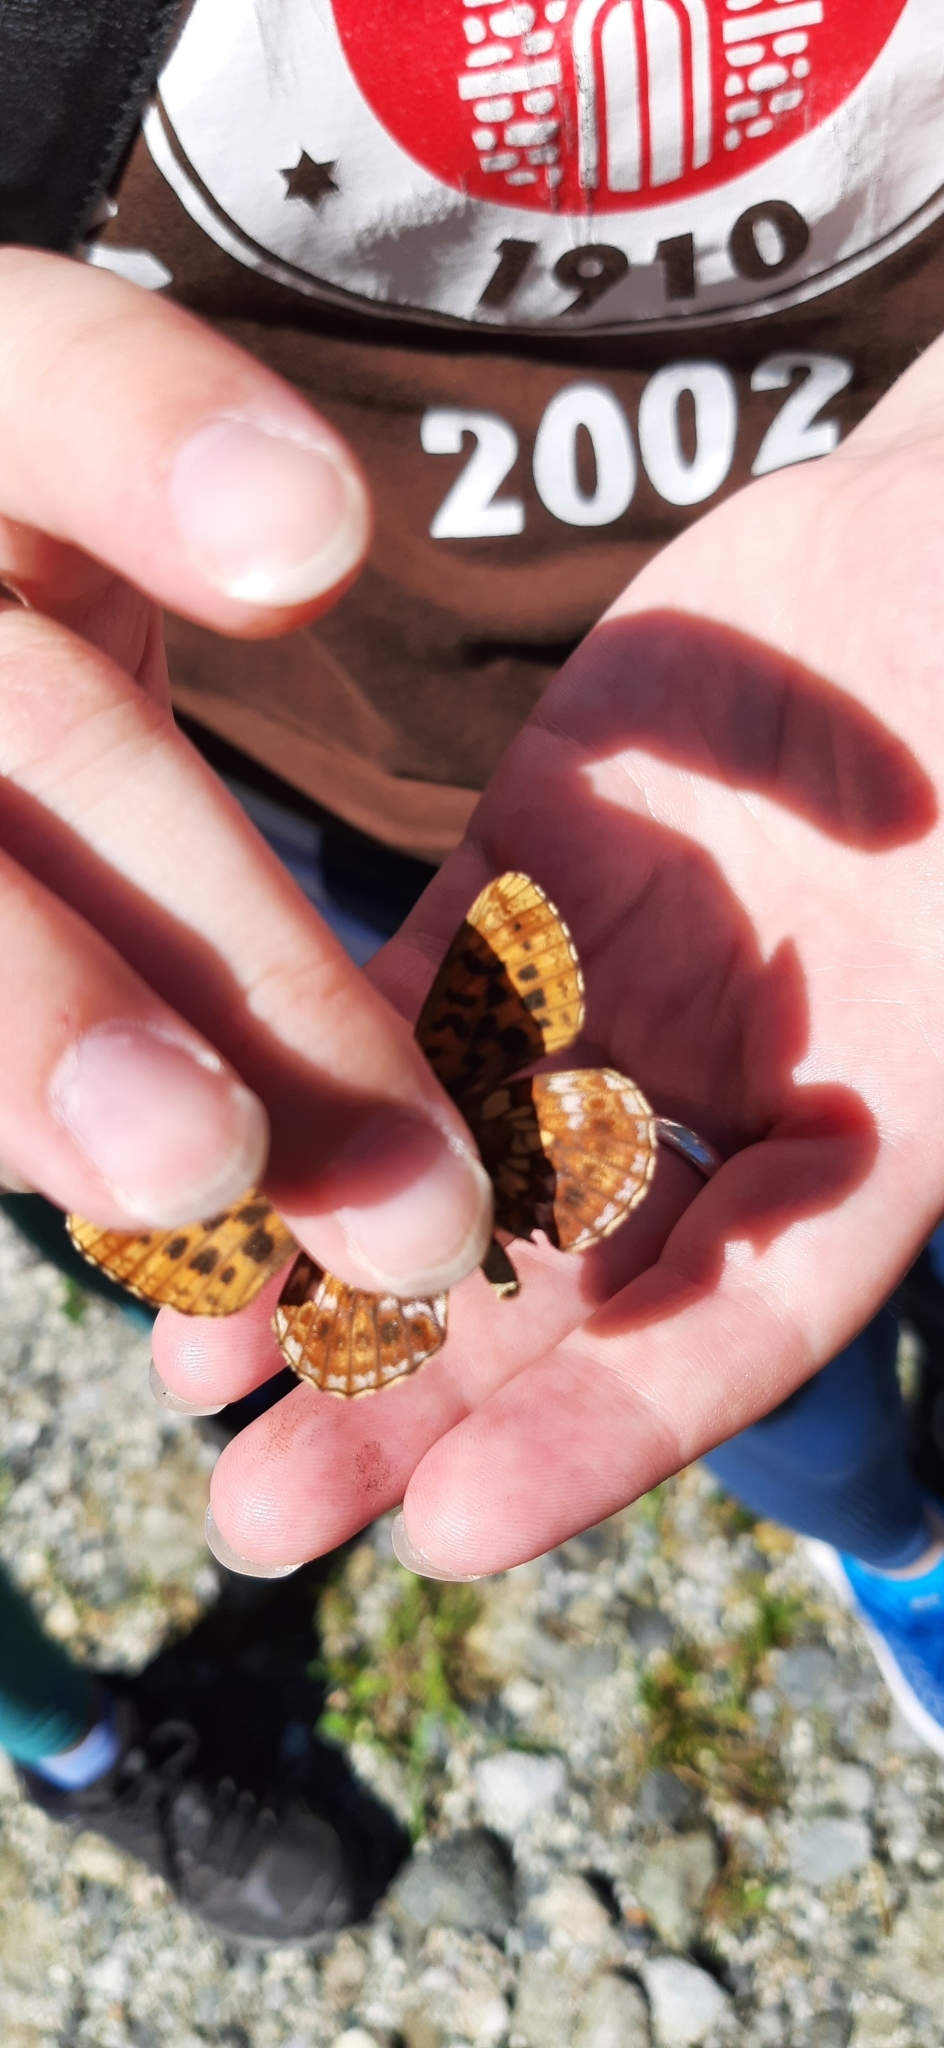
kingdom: Animalia
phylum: Arthropoda
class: Insecta
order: Lepidoptera
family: Nymphalidae
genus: Boloria
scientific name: Boloria thore
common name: Thor's fritillary
